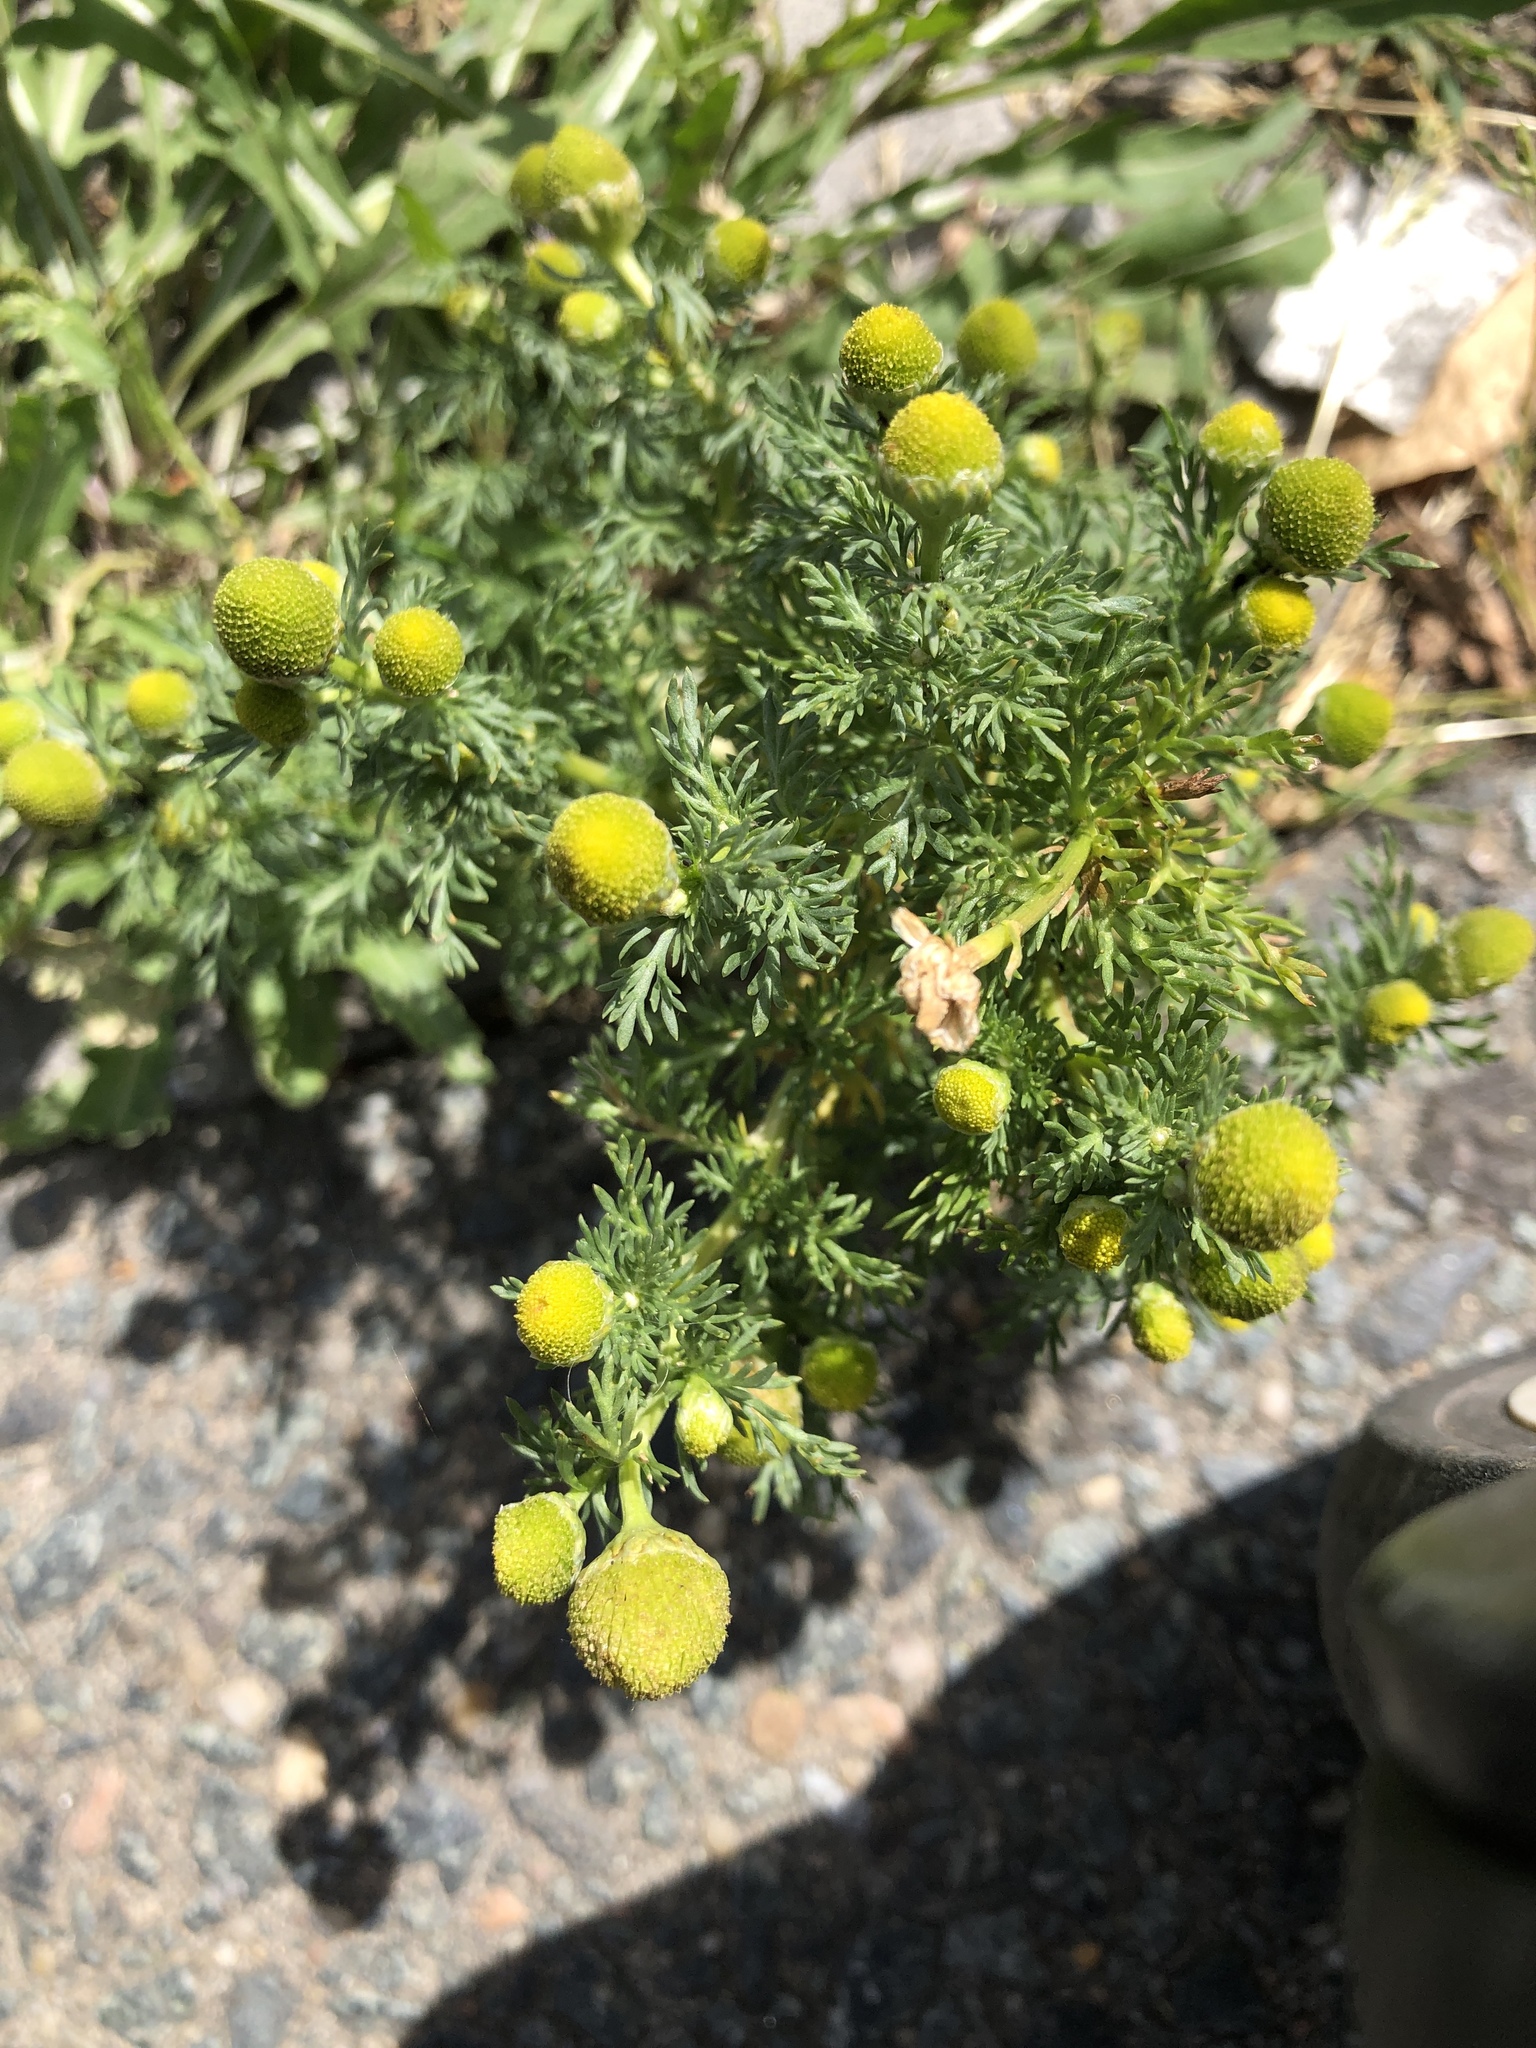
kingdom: Plantae
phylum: Tracheophyta
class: Magnoliopsida
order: Asterales
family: Asteraceae
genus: Matricaria
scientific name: Matricaria discoidea
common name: Disc mayweed
